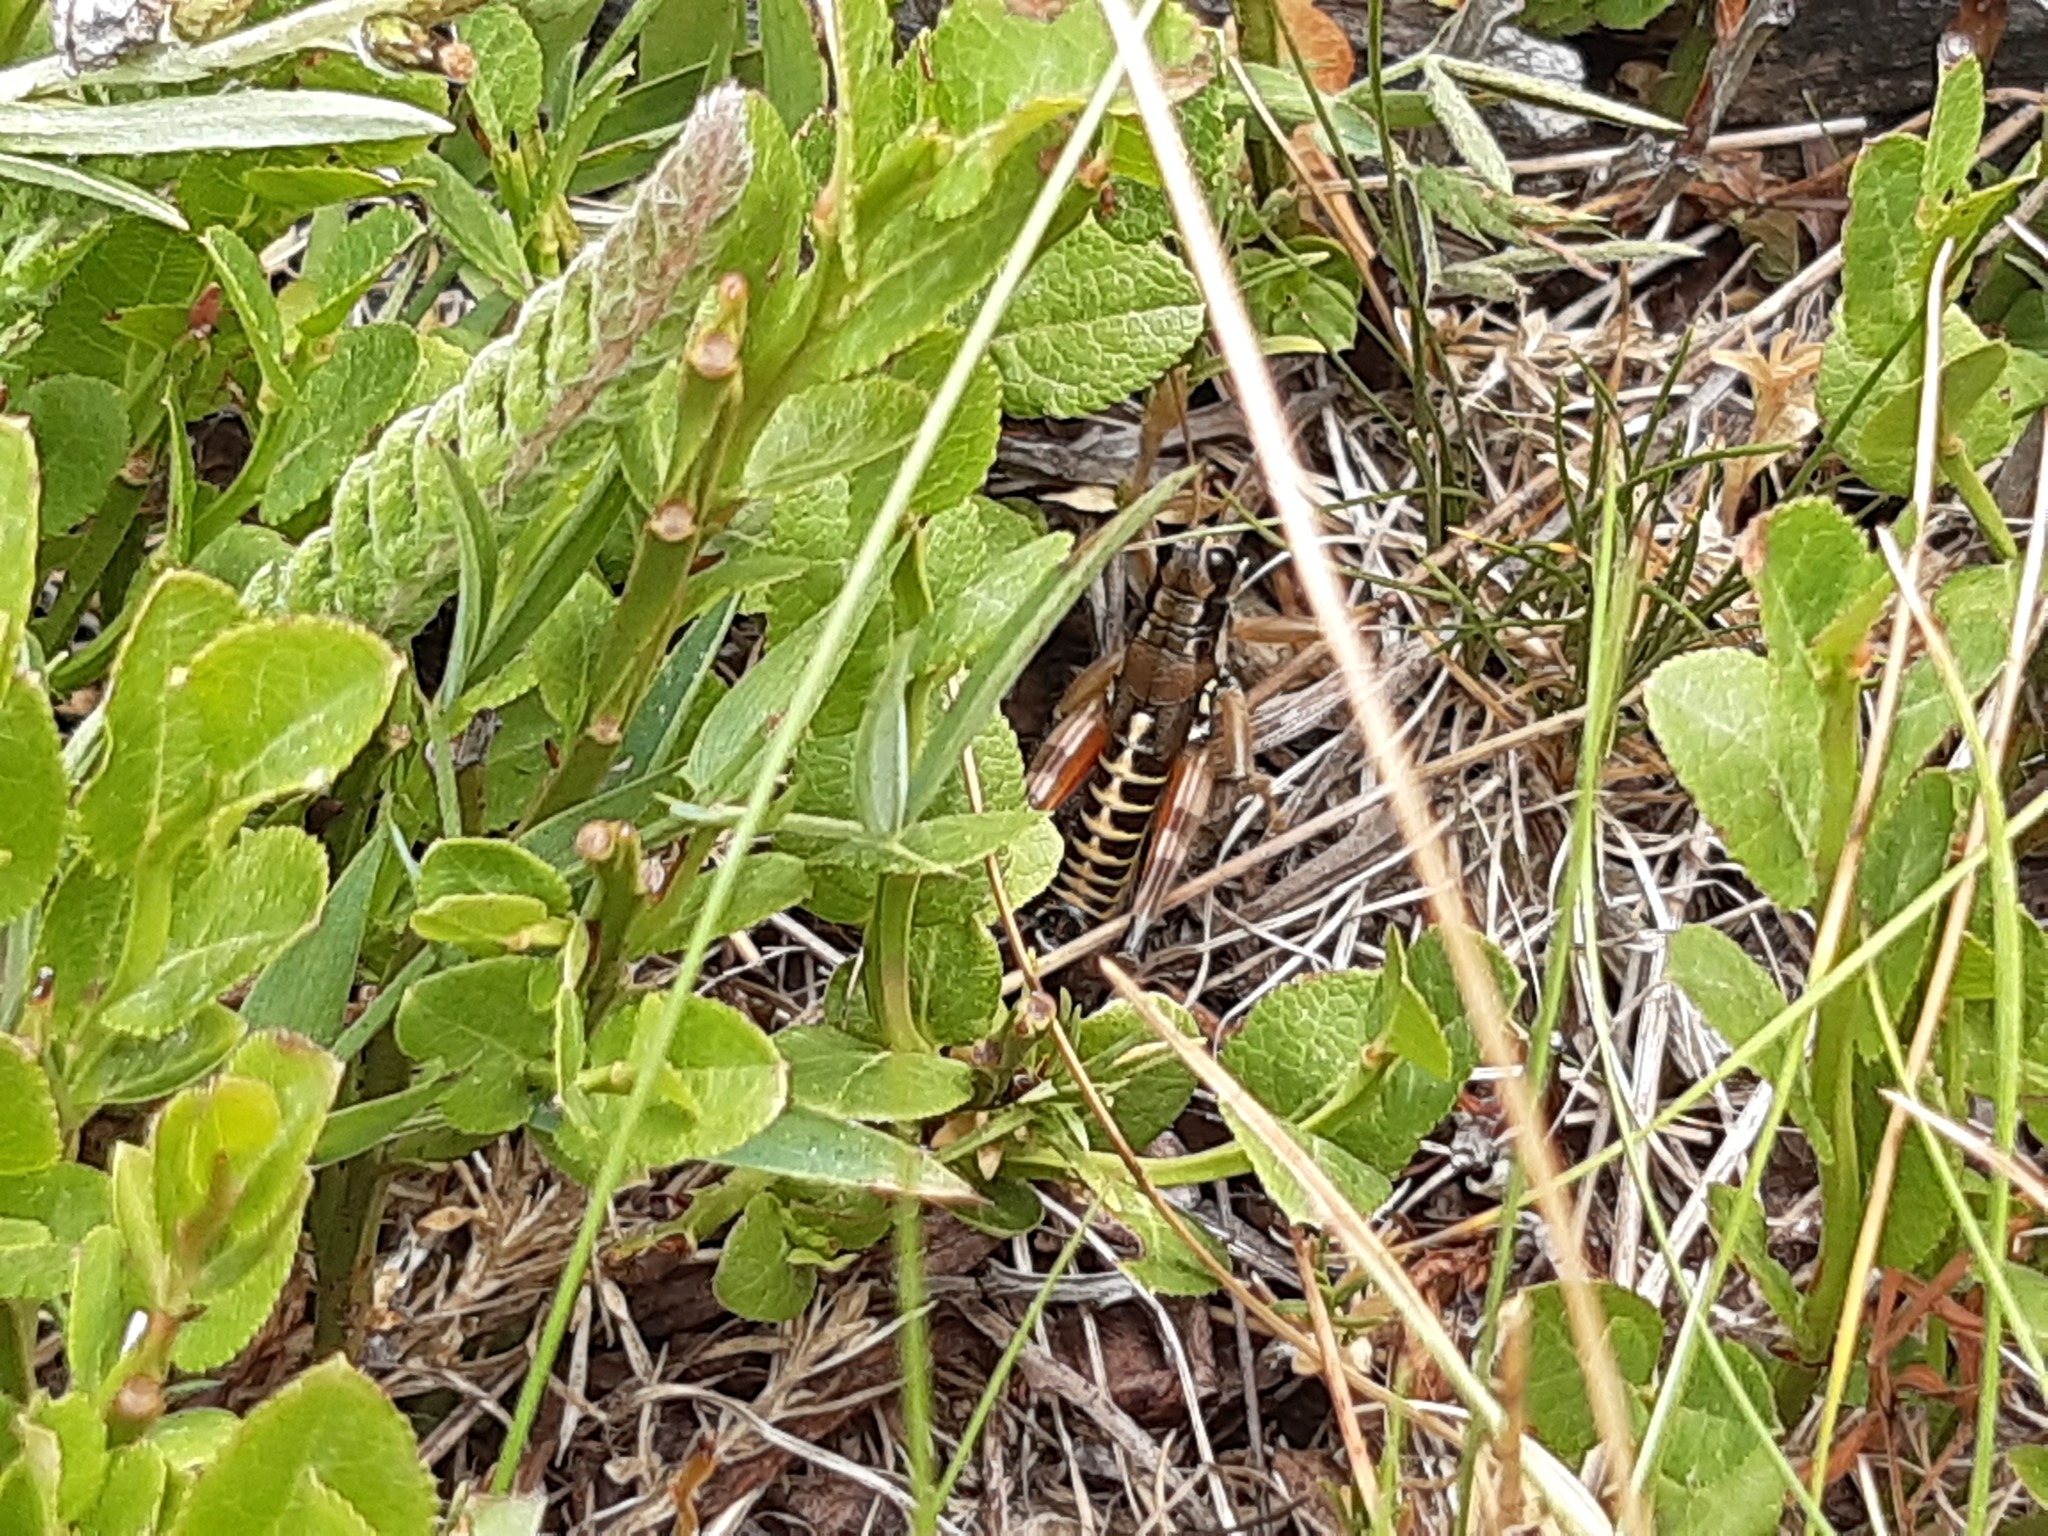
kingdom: Animalia
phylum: Arthropoda
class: Insecta
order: Orthoptera
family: Acrididae
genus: Podisma
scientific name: Podisma pedestris
